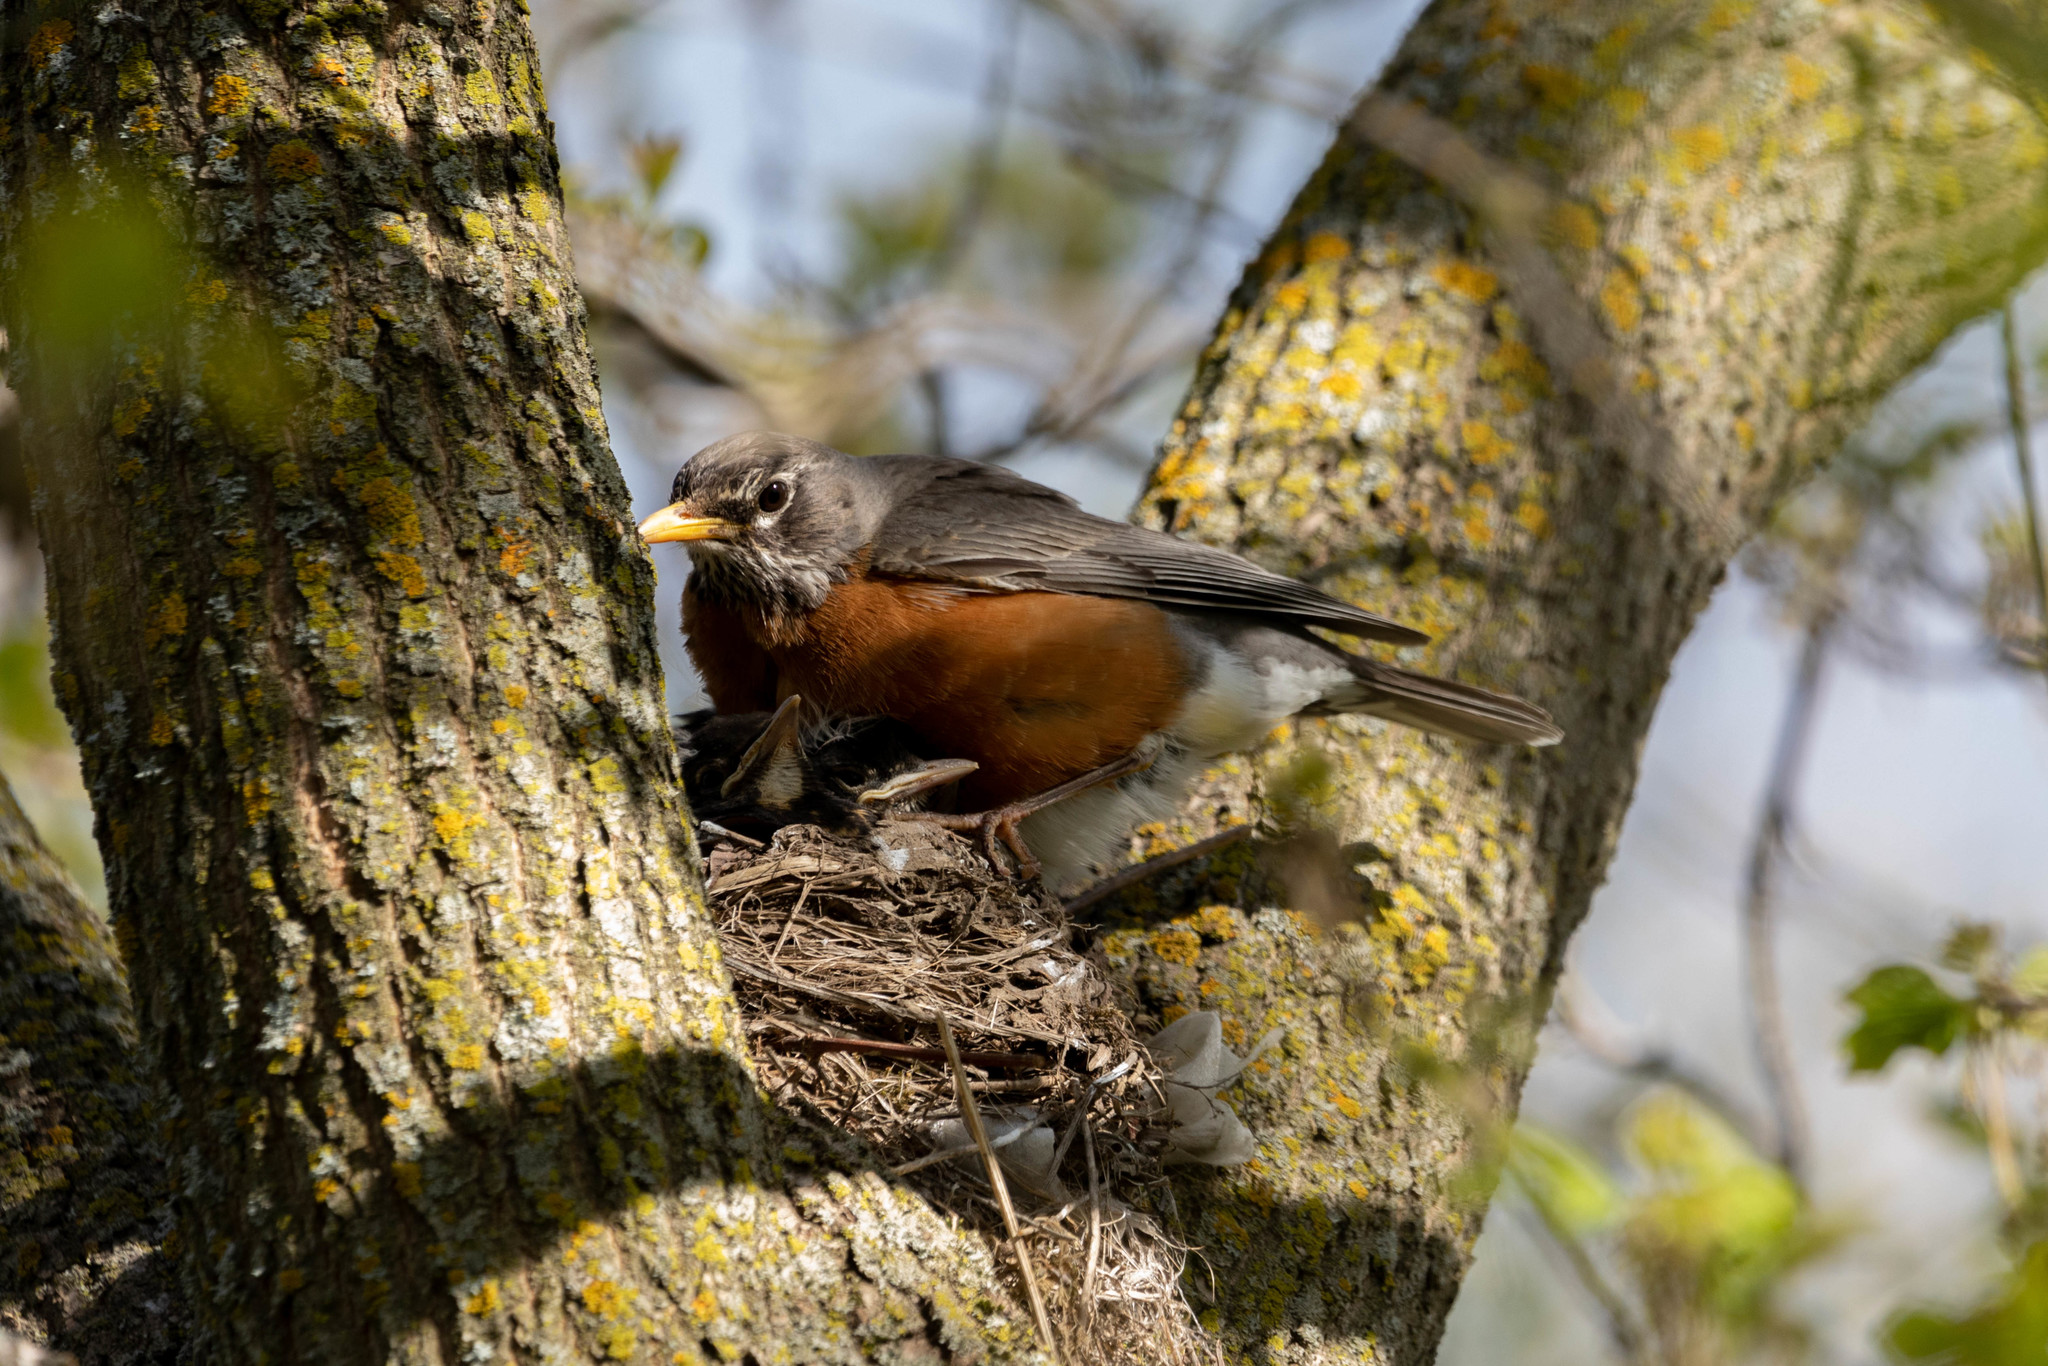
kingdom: Animalia
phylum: Chordata
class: Aves
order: Passeriformes
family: Turdidae
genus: Turdus
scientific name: Turdus migratorius
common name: American robin
